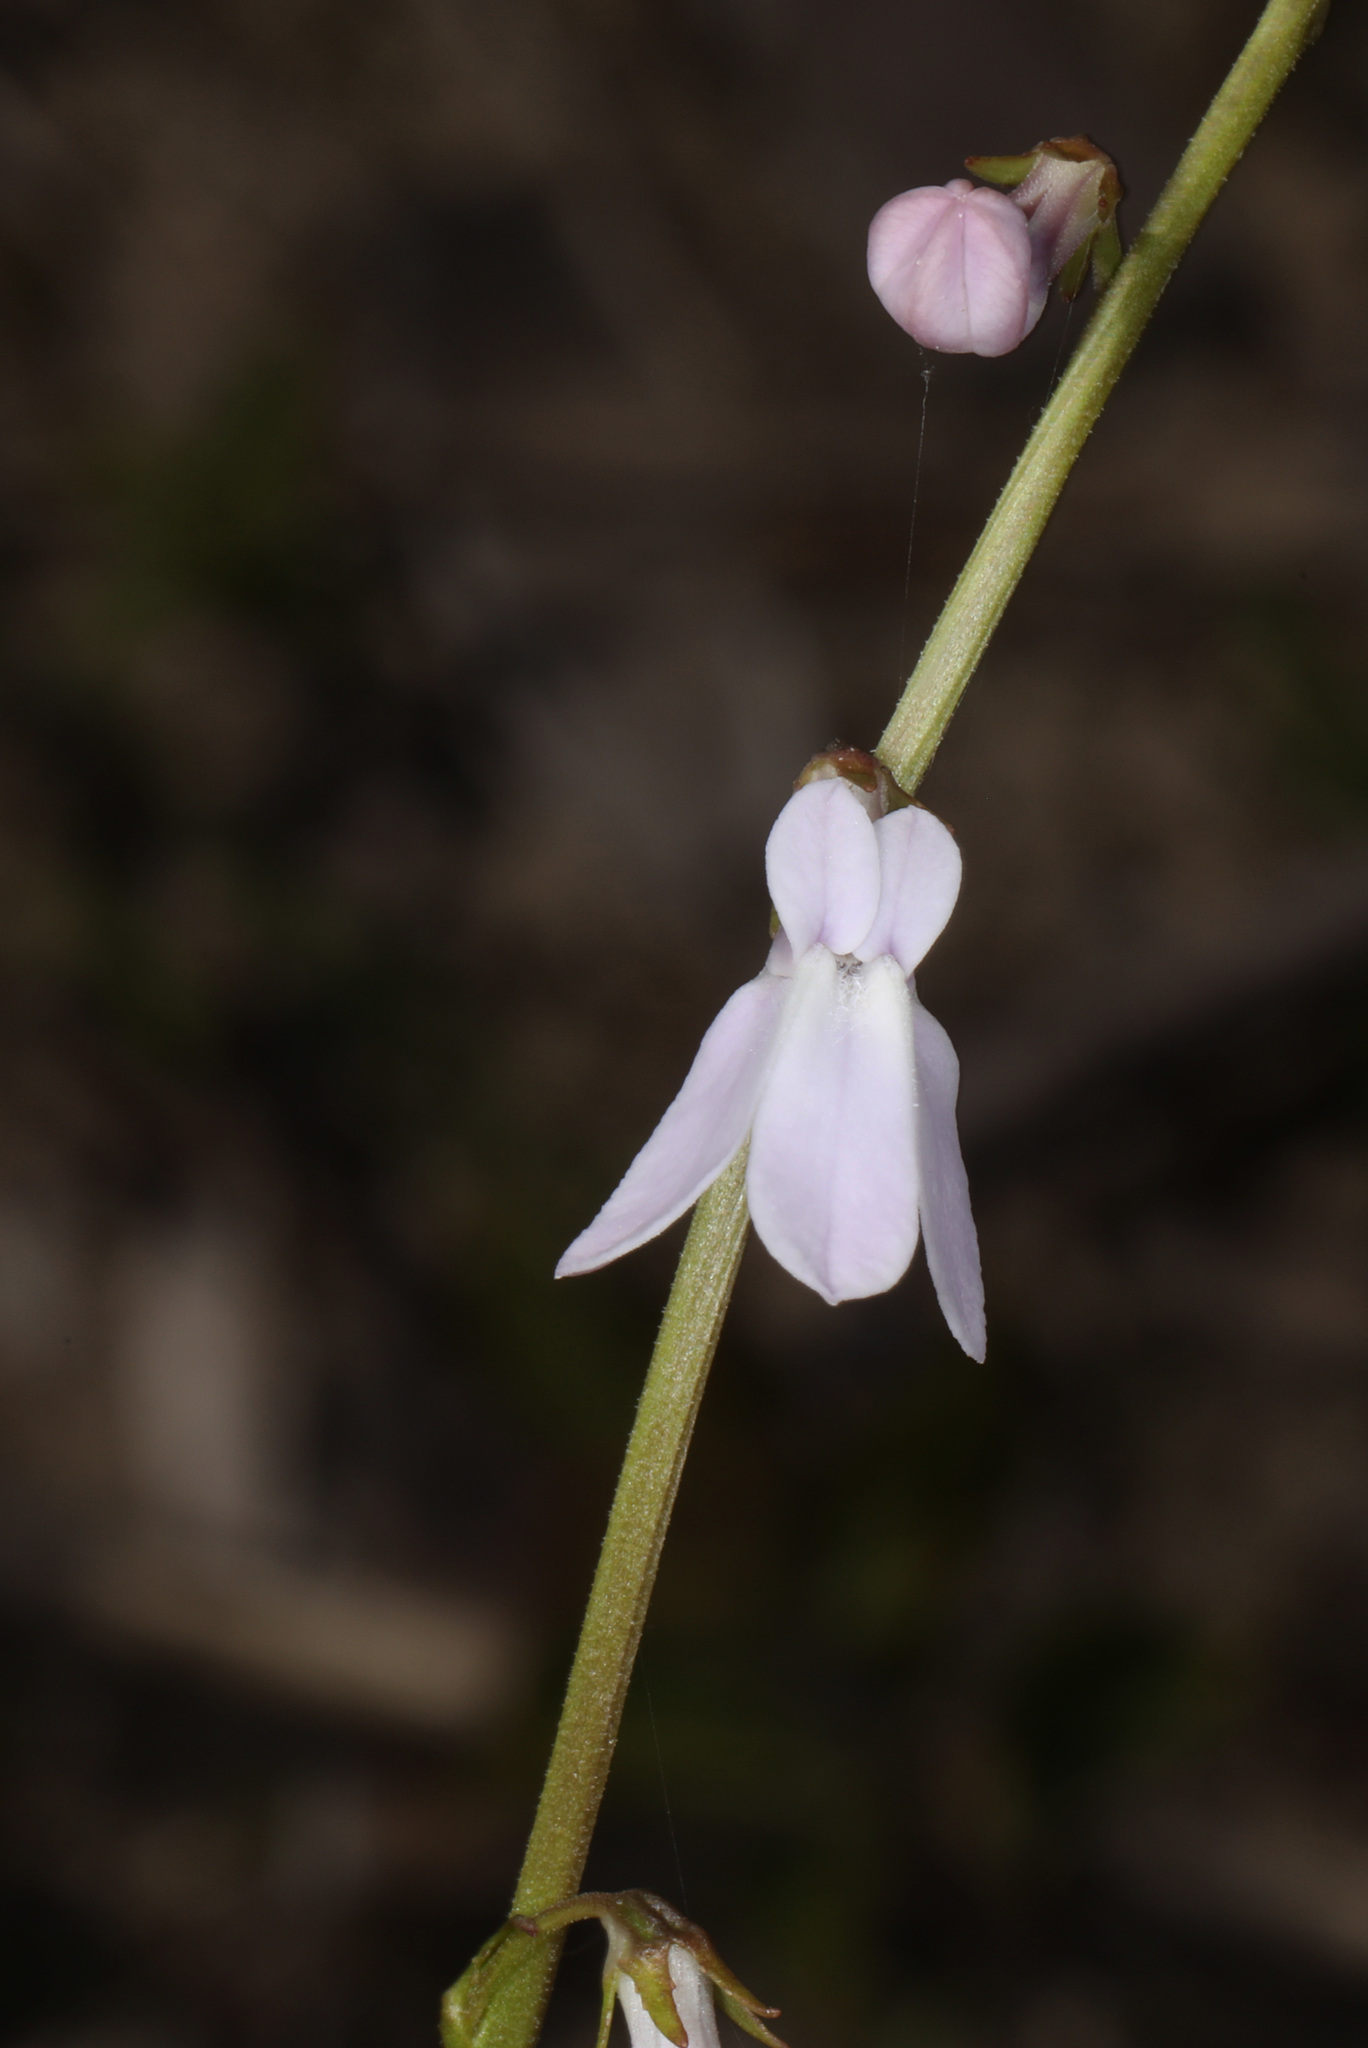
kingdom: Plantae
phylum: Tracheophyta
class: Magnoliopsida
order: Asterales
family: Campanulaceae
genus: Lobelia
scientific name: Lobelia paludosa
